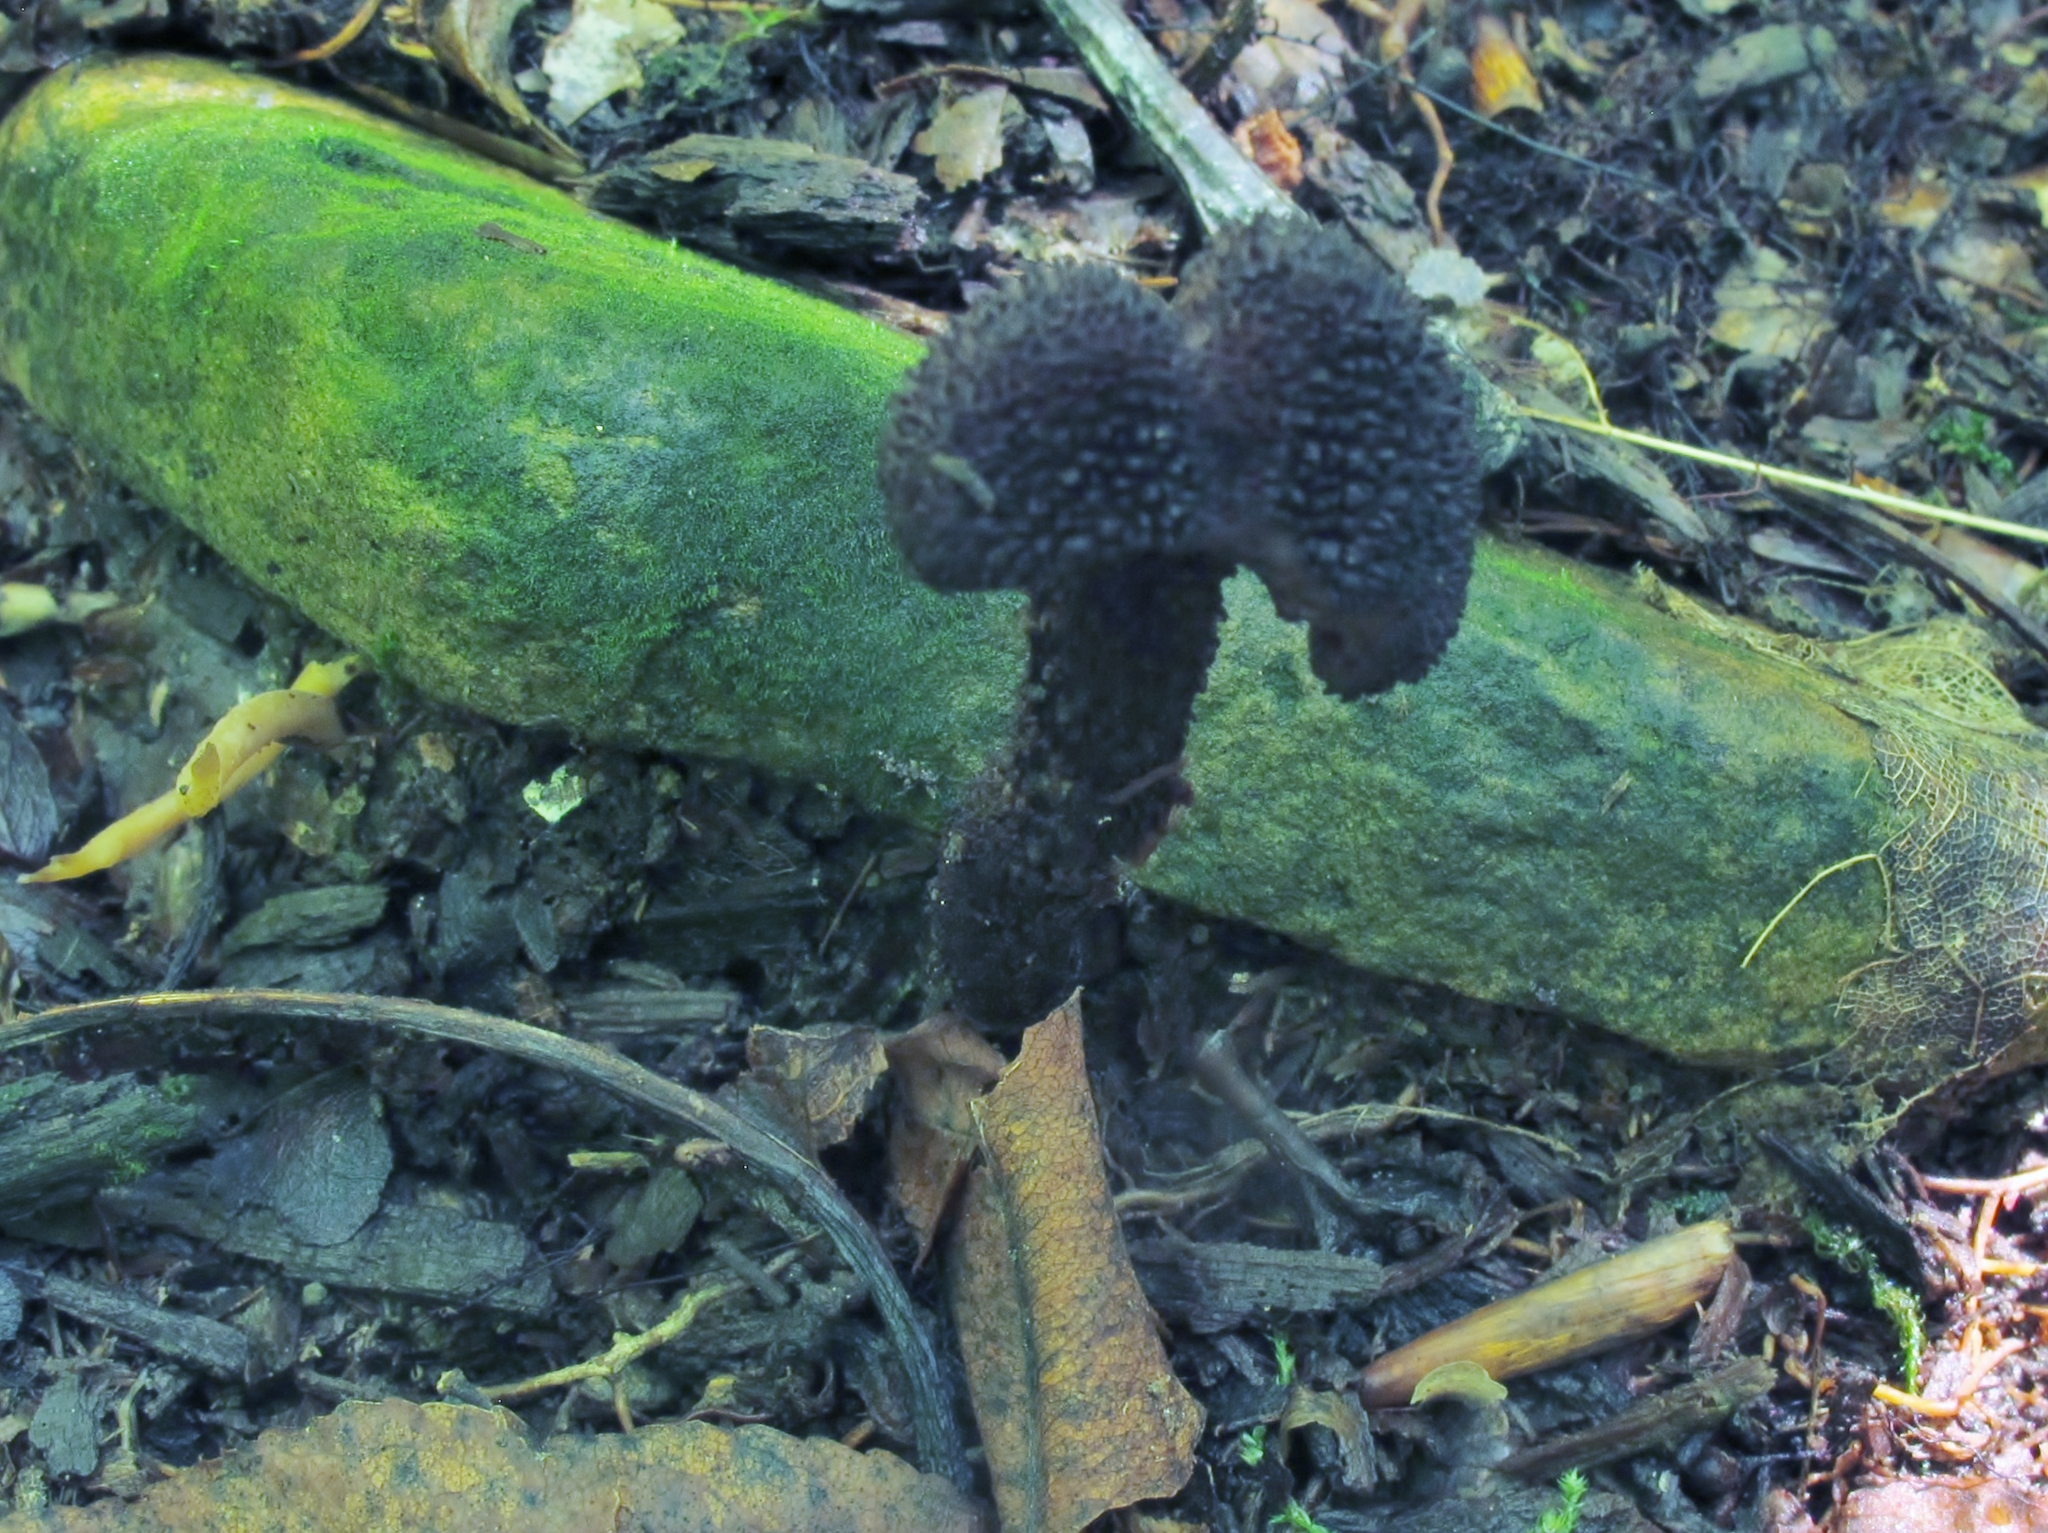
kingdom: Fungi
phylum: Basidiomycota
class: Agaricomycetes
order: Agaricales
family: Inocybaceae
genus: Inocybe
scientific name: Inocybe tahquamenonensis
